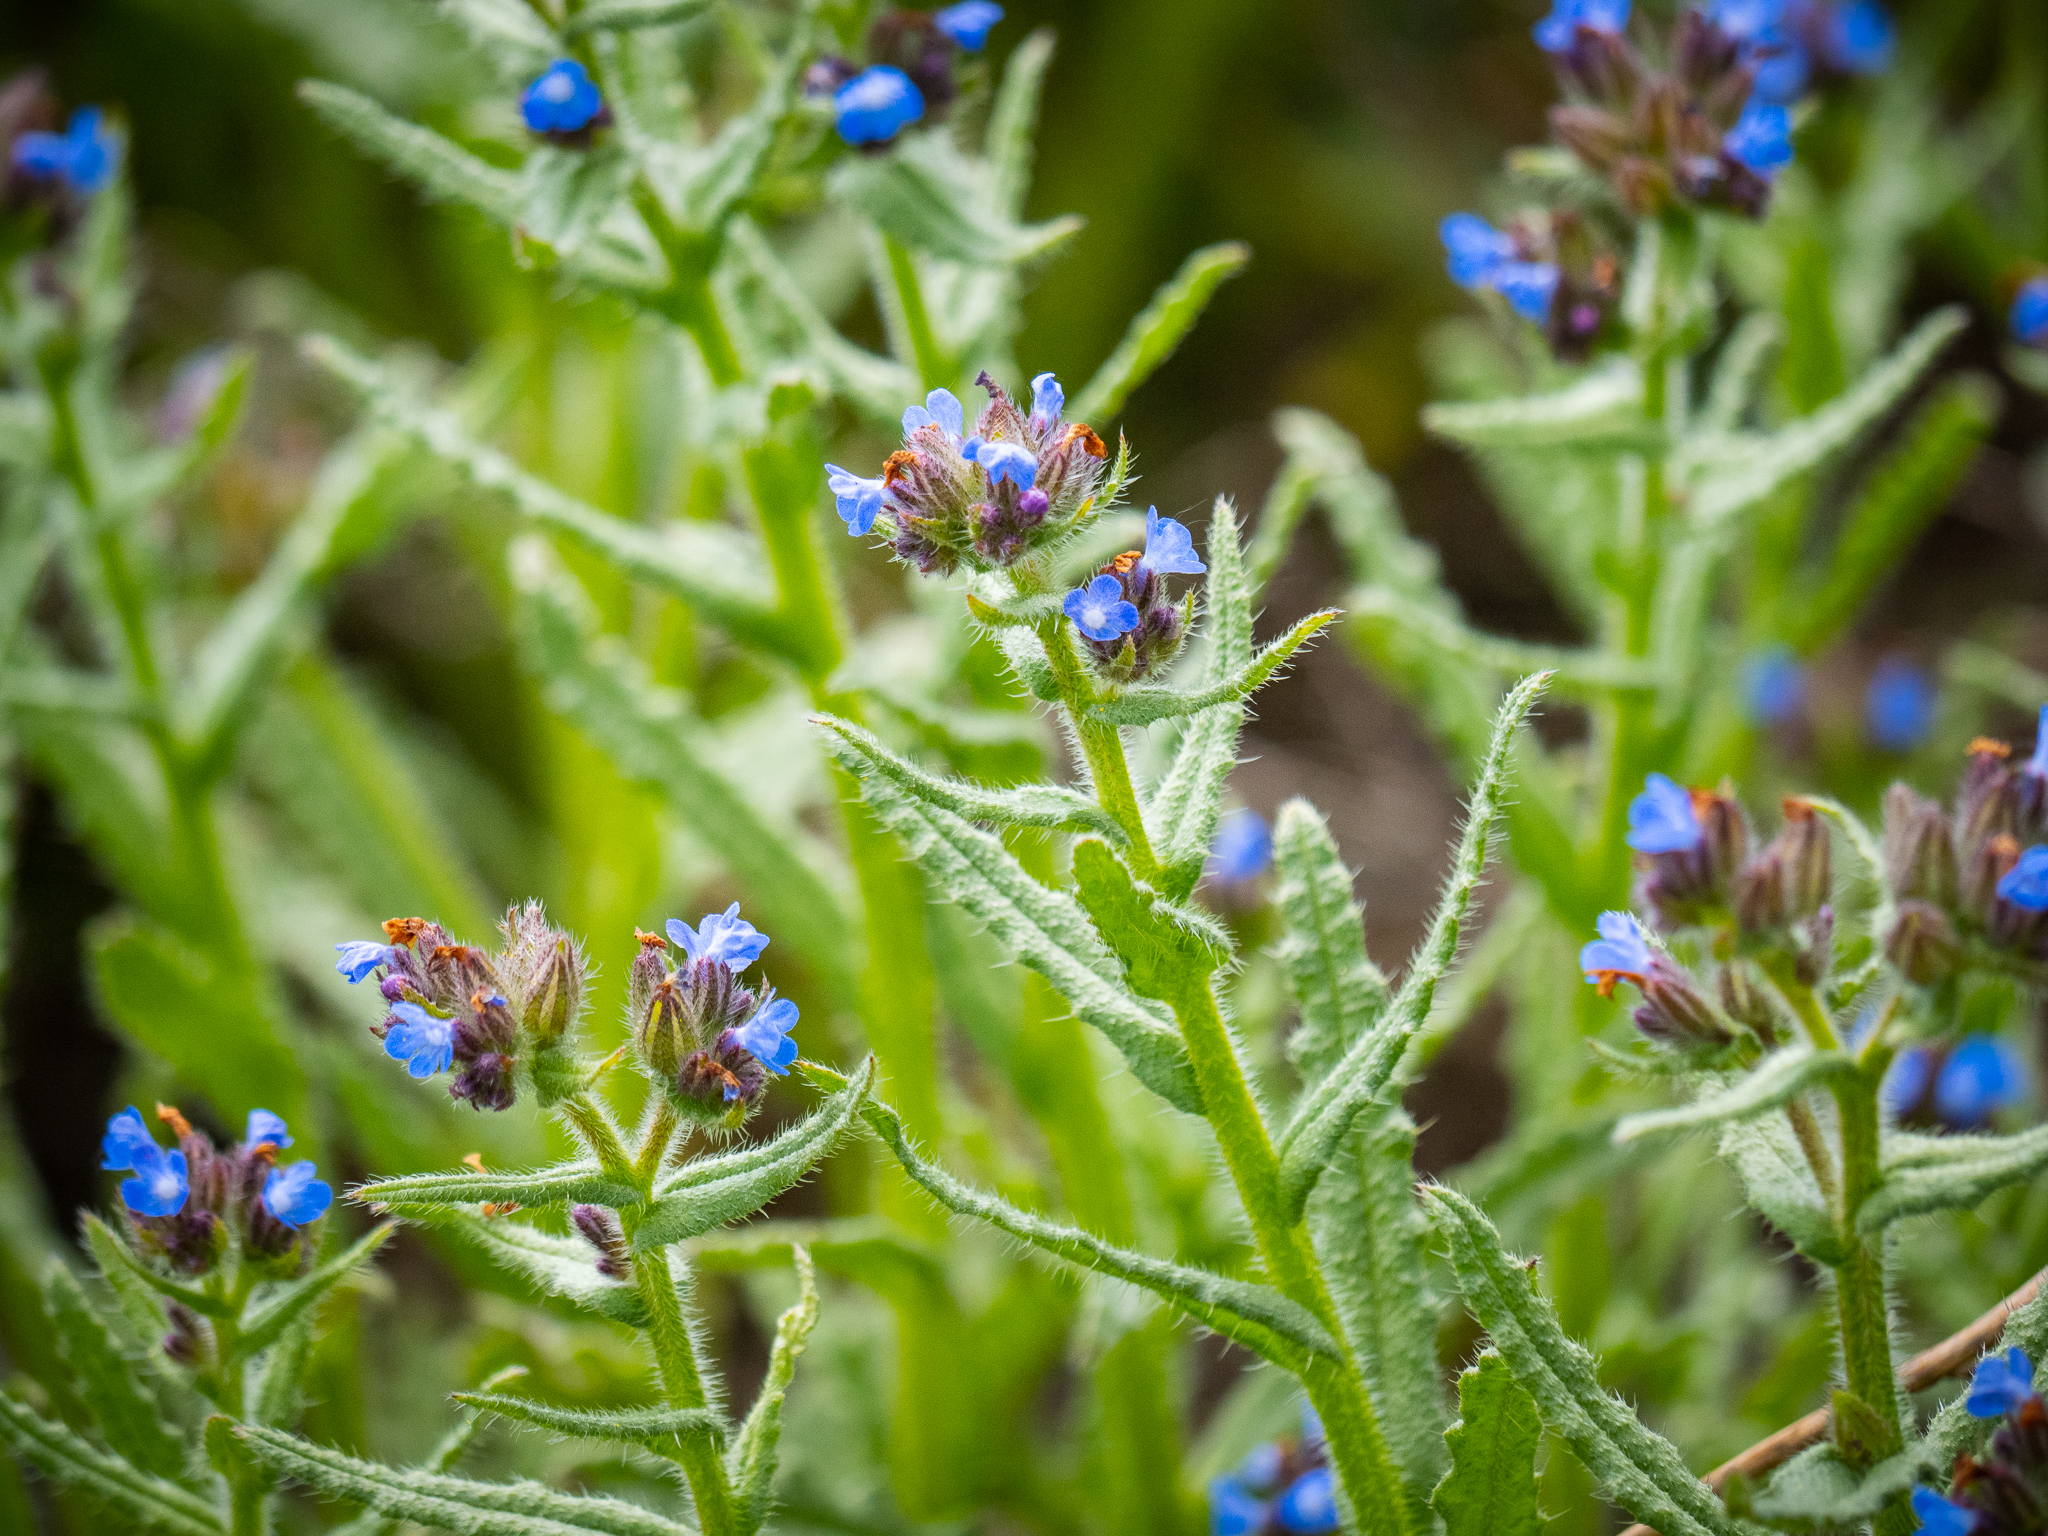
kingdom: Plantae
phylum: Tracheophyta
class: Magnoliopsida
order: Boraginales
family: Boraginaceae
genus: Lycopsis
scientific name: Lycopsis arvensis
